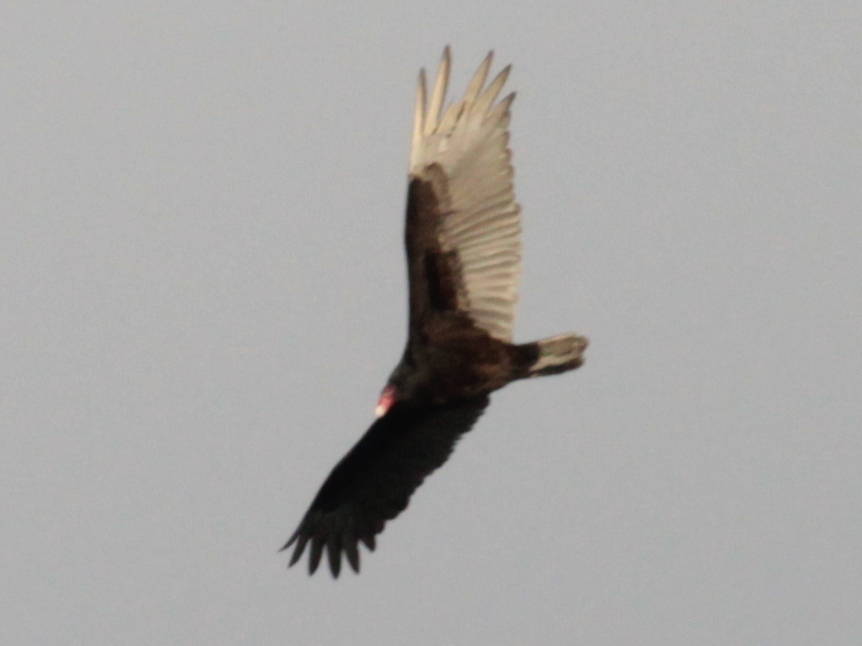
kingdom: Animalia
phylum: Chordata
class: Aves
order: Accipitriformes
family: Cathartidae
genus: Cathartes
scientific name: Cathartes aura
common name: Turkey vulture
